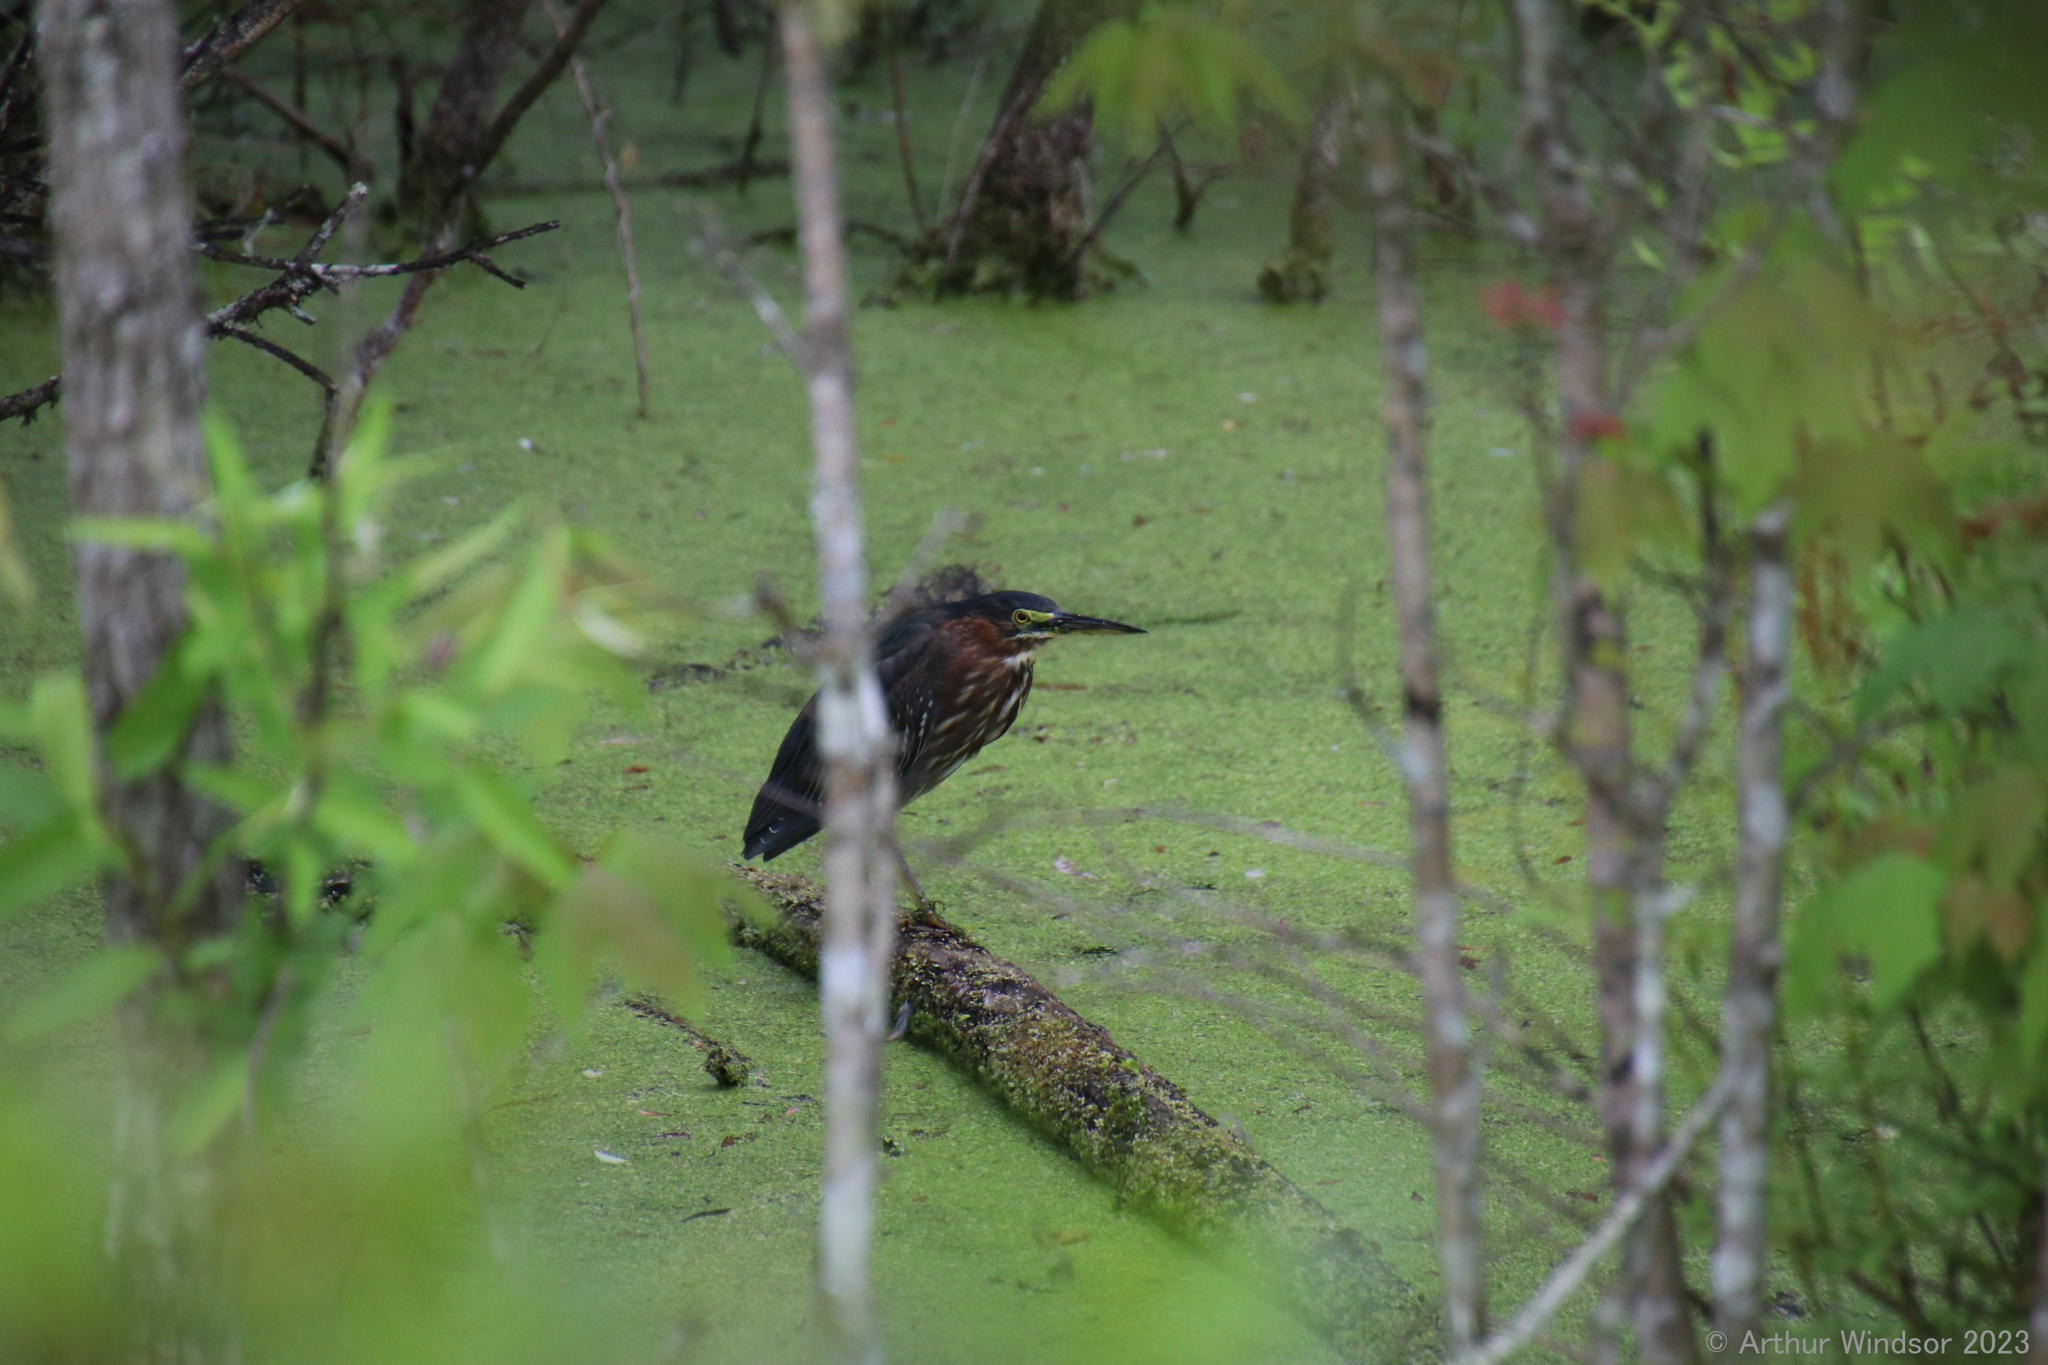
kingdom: Animalia
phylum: Chordata
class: Aves
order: Pelecaniformes
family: Ardeidae
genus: Butorides
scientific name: Butorides virescens
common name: Green heron
